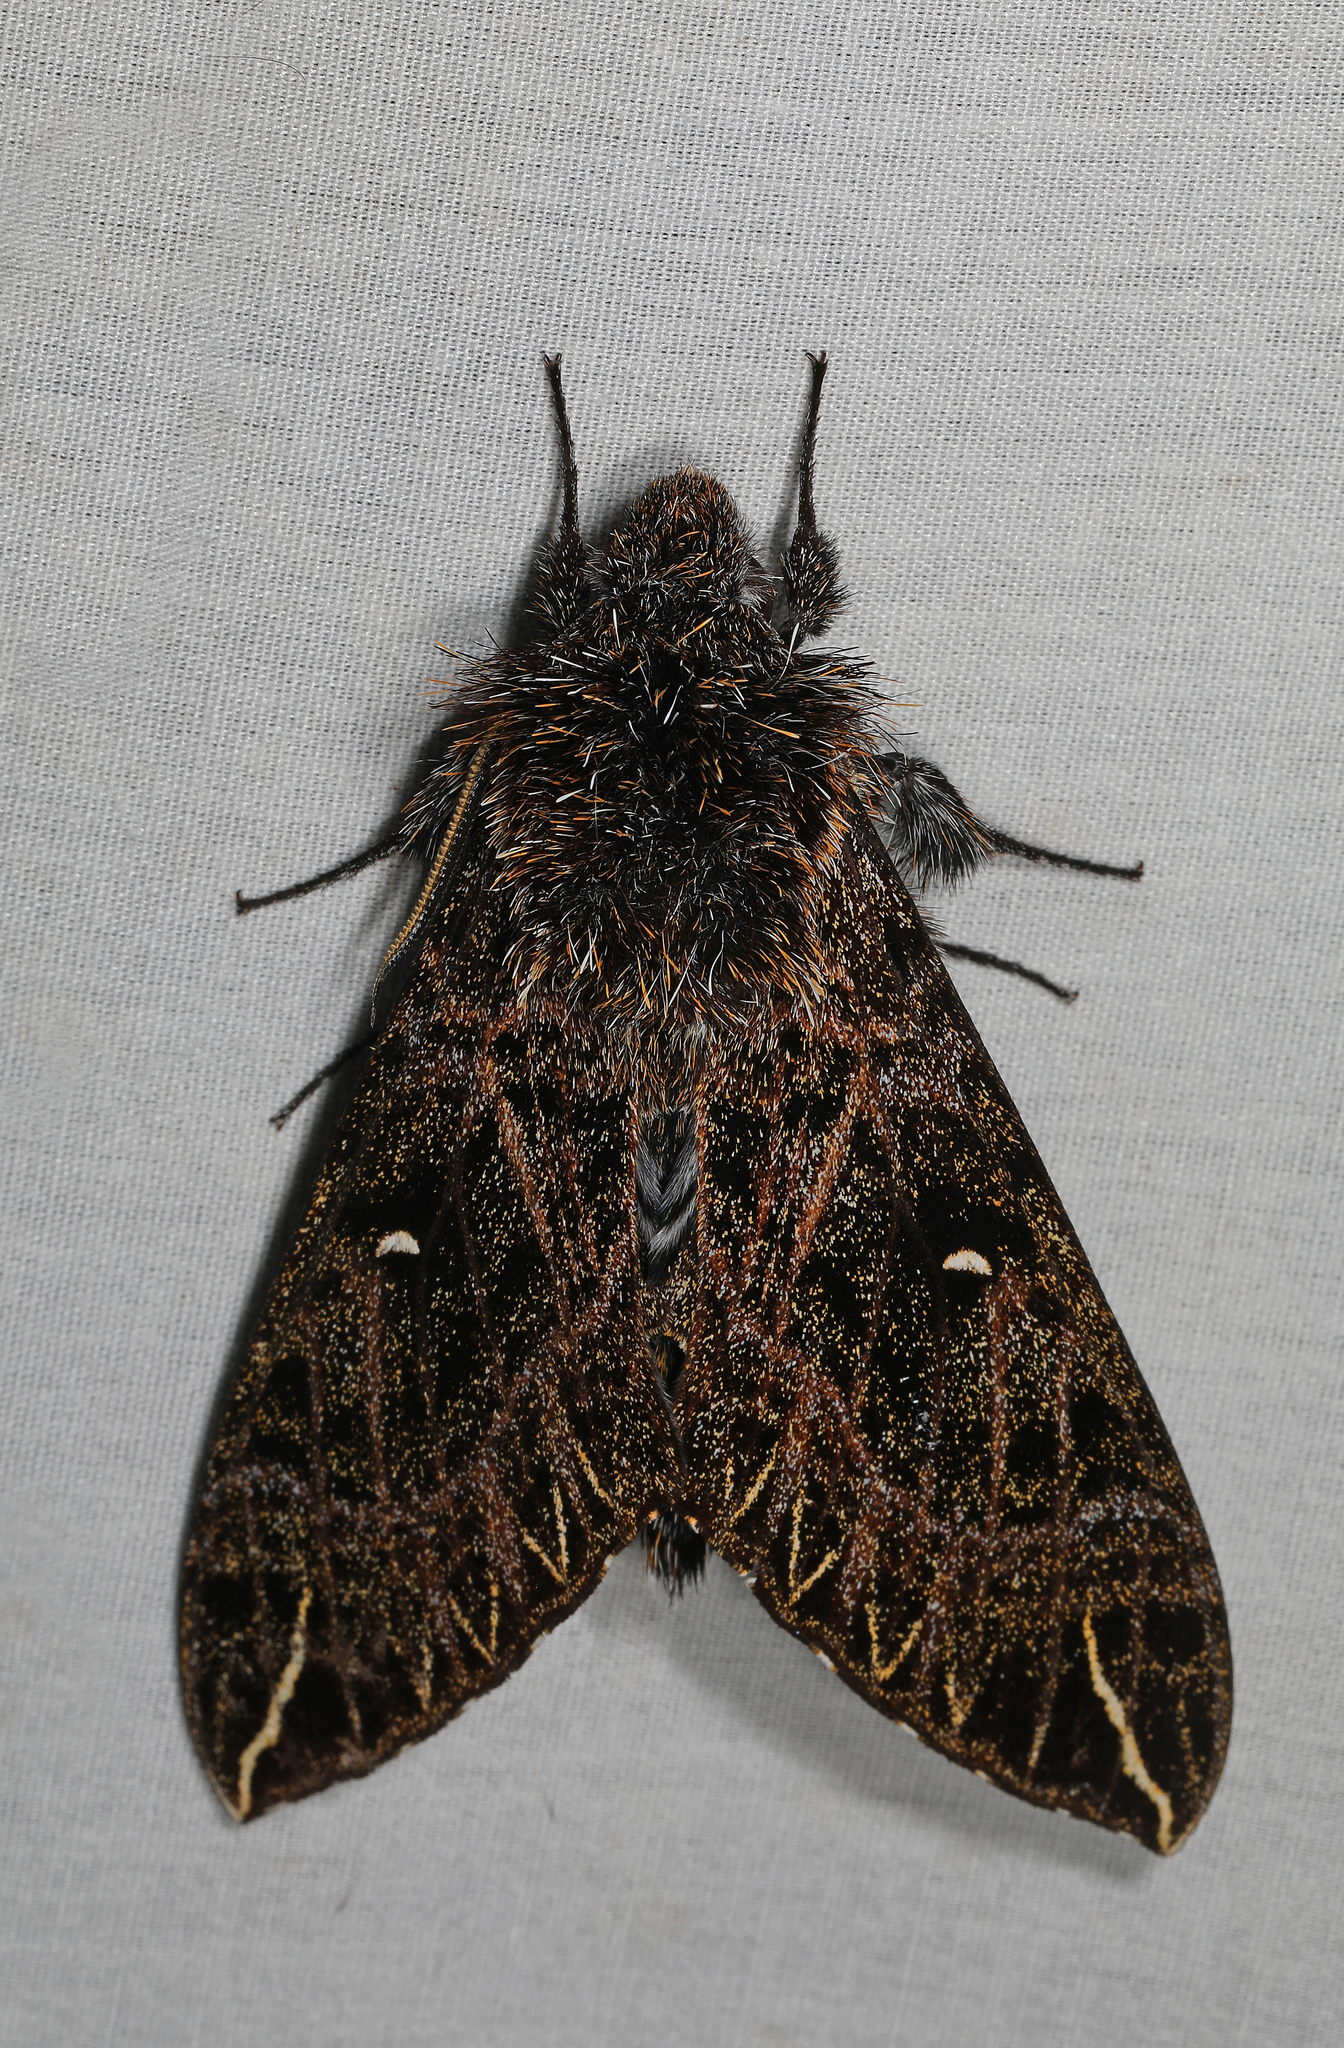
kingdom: Animalia
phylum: Arthropoda
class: Insecta
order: Lepidoptera
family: Sphingidae
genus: Euryglottis
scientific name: Euryglottis dognini
